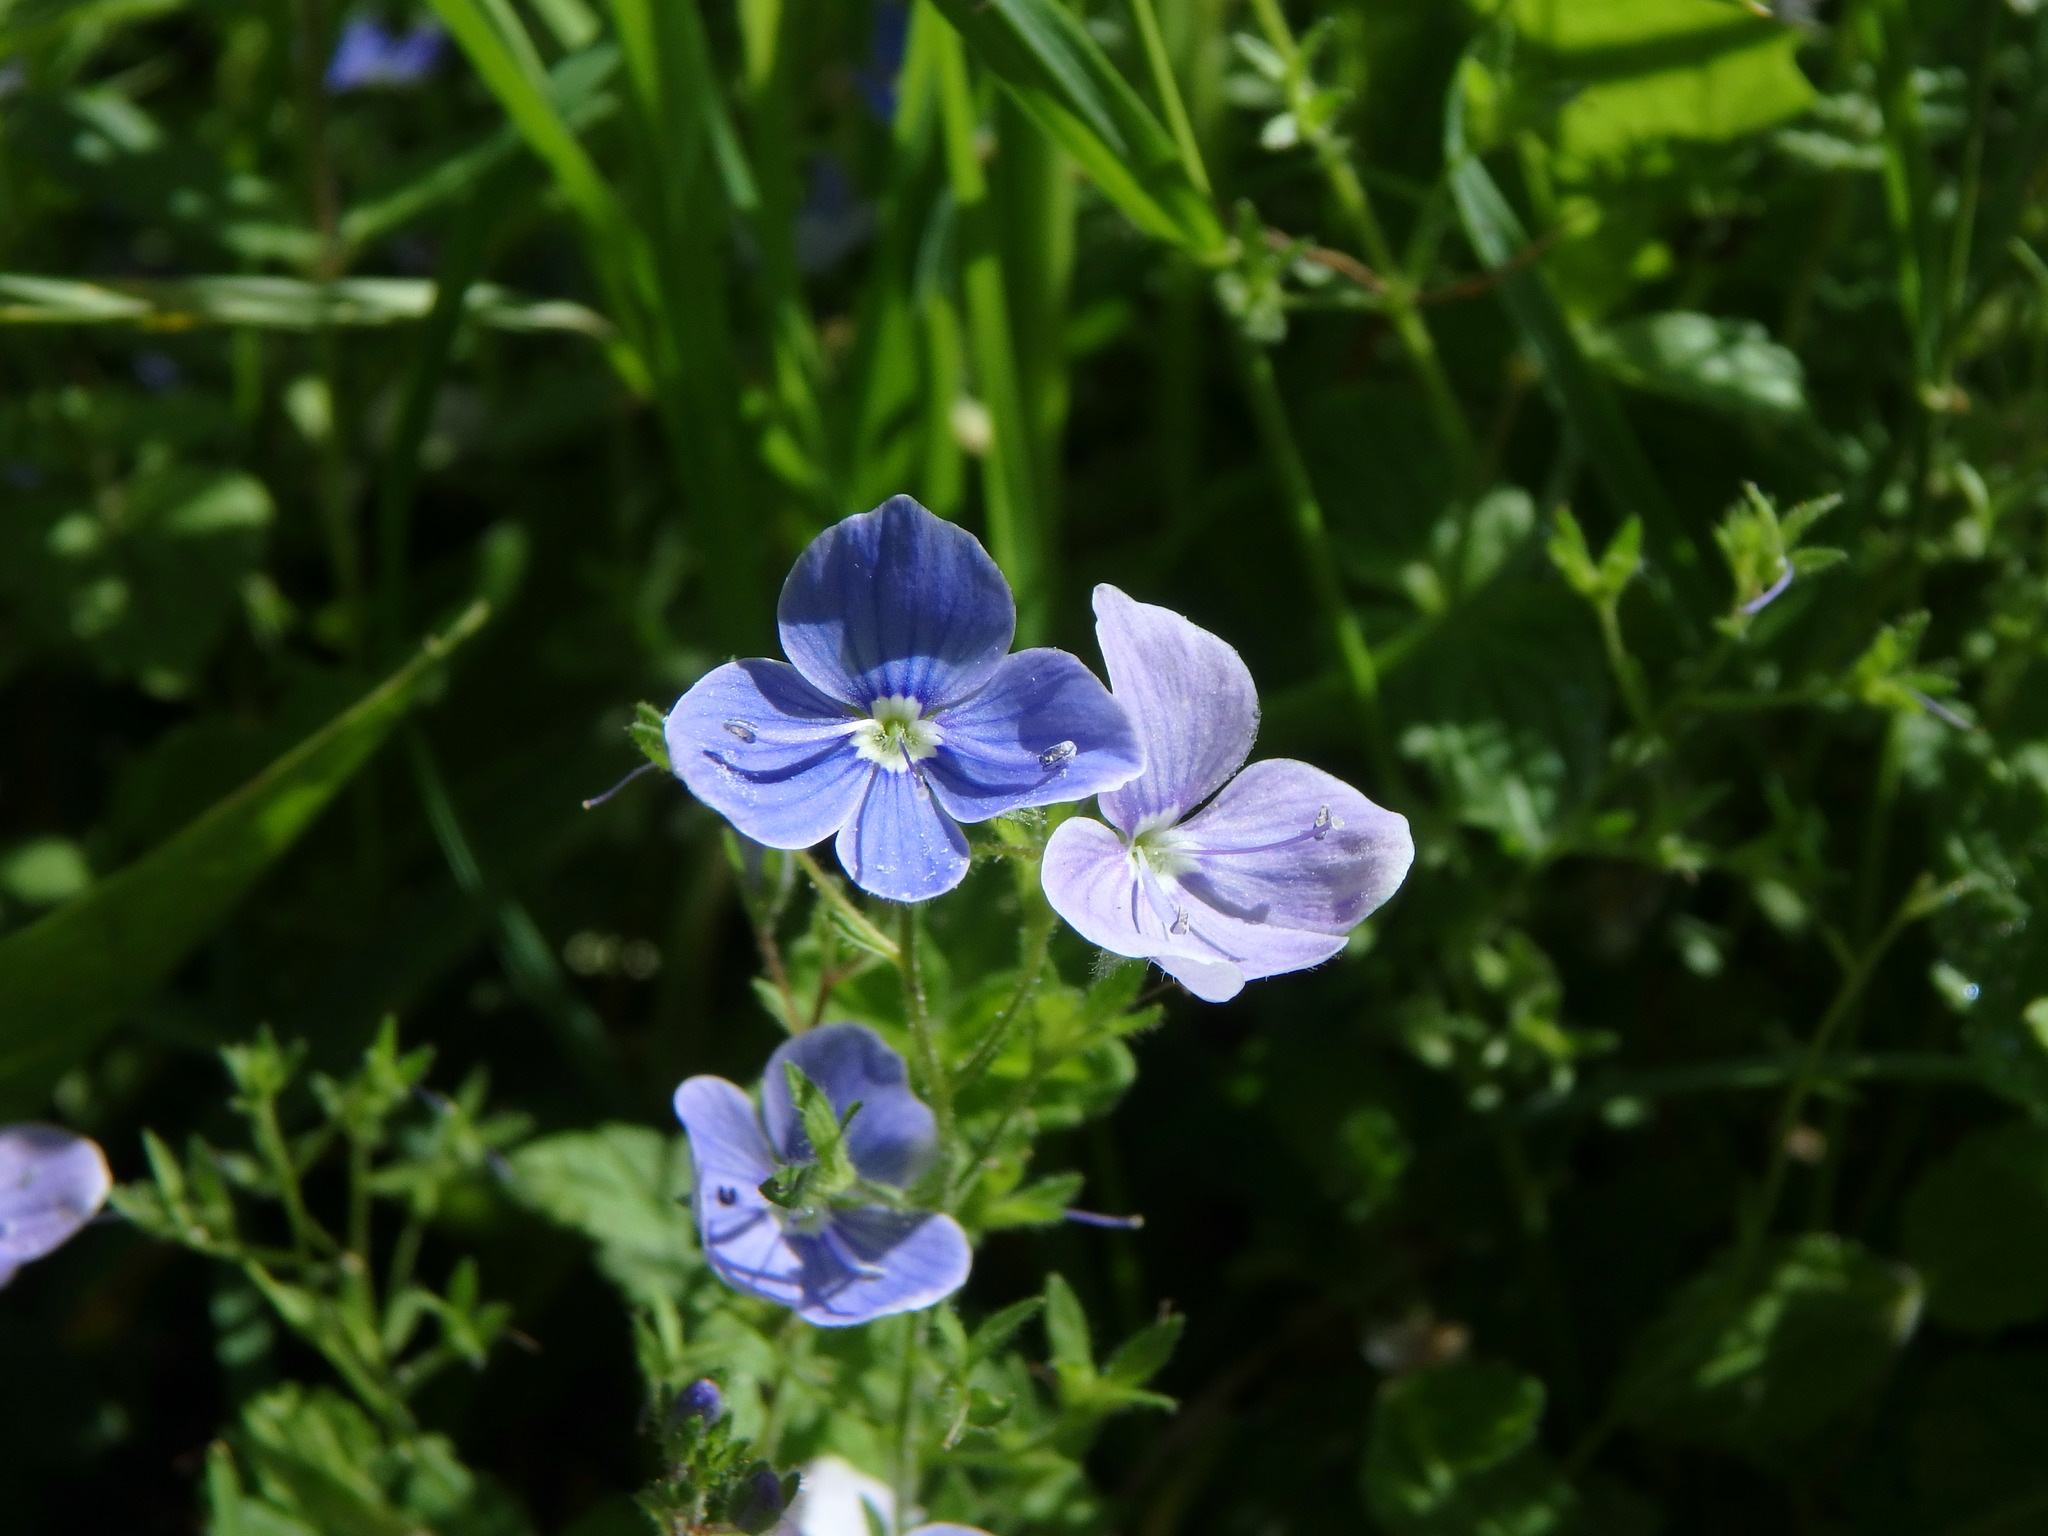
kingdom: Plantae
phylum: Tracheophyta
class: Magnoliopsida
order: Lamiales
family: Plantaginaceae
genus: Veronica
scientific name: Veronica chamaedrys
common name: Germander speedwell
